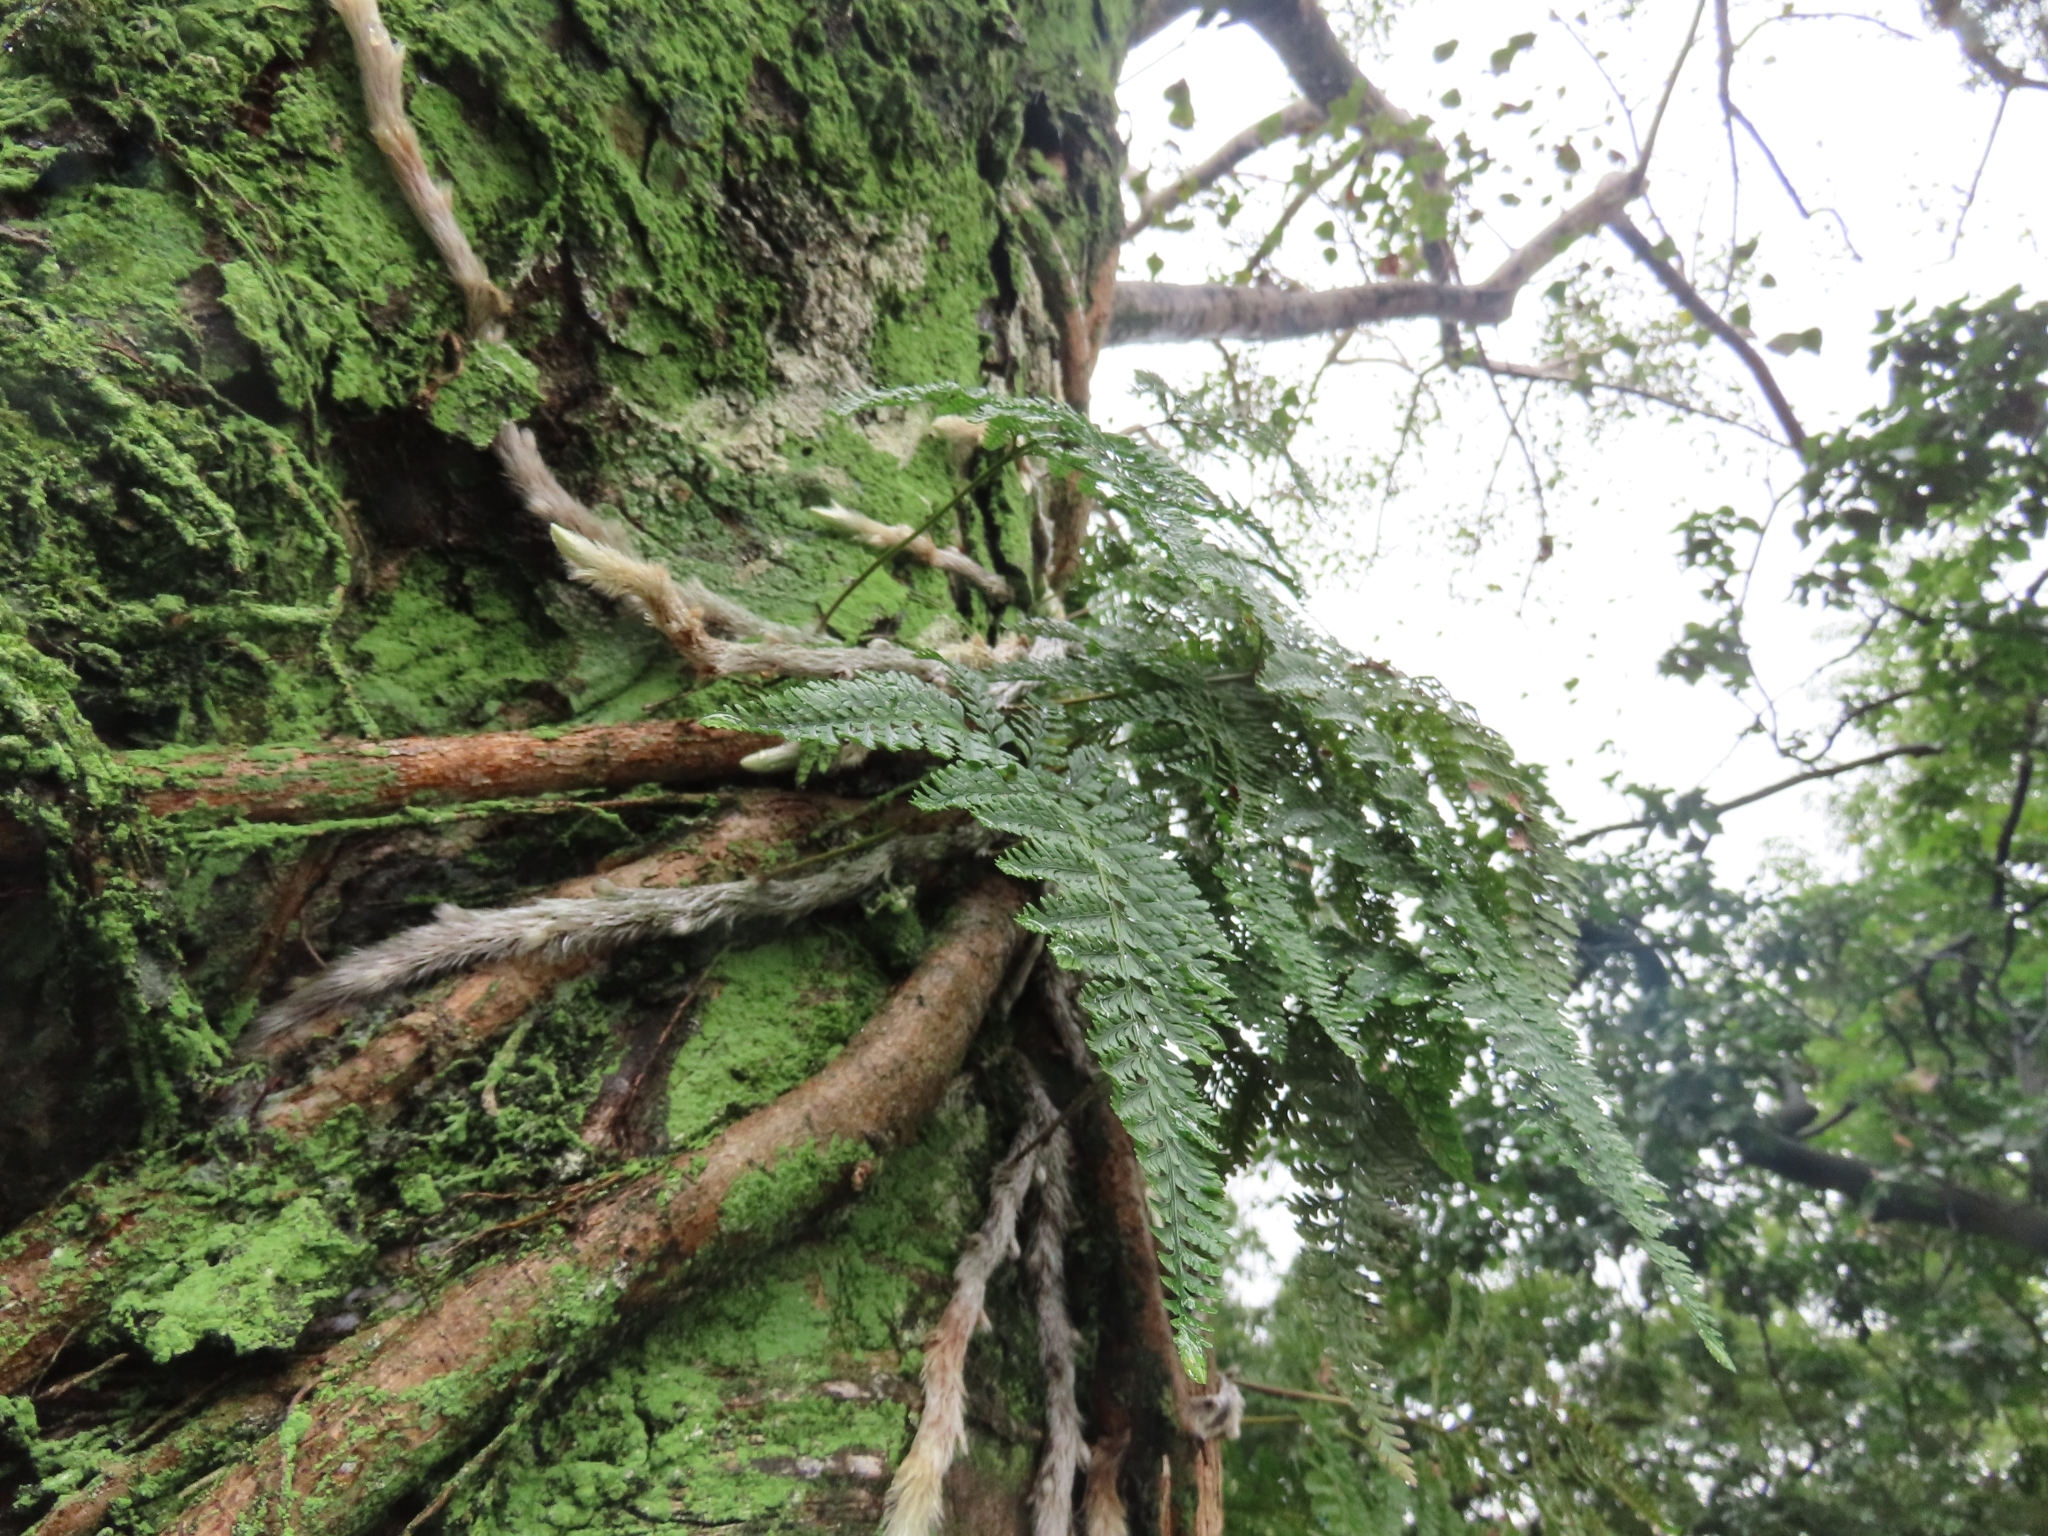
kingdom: Plantae
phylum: Tracheophyta
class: Polypodiopsida
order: Polypodiales
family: Davalliaceae
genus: Davallia
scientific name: Davallia griffithiana
